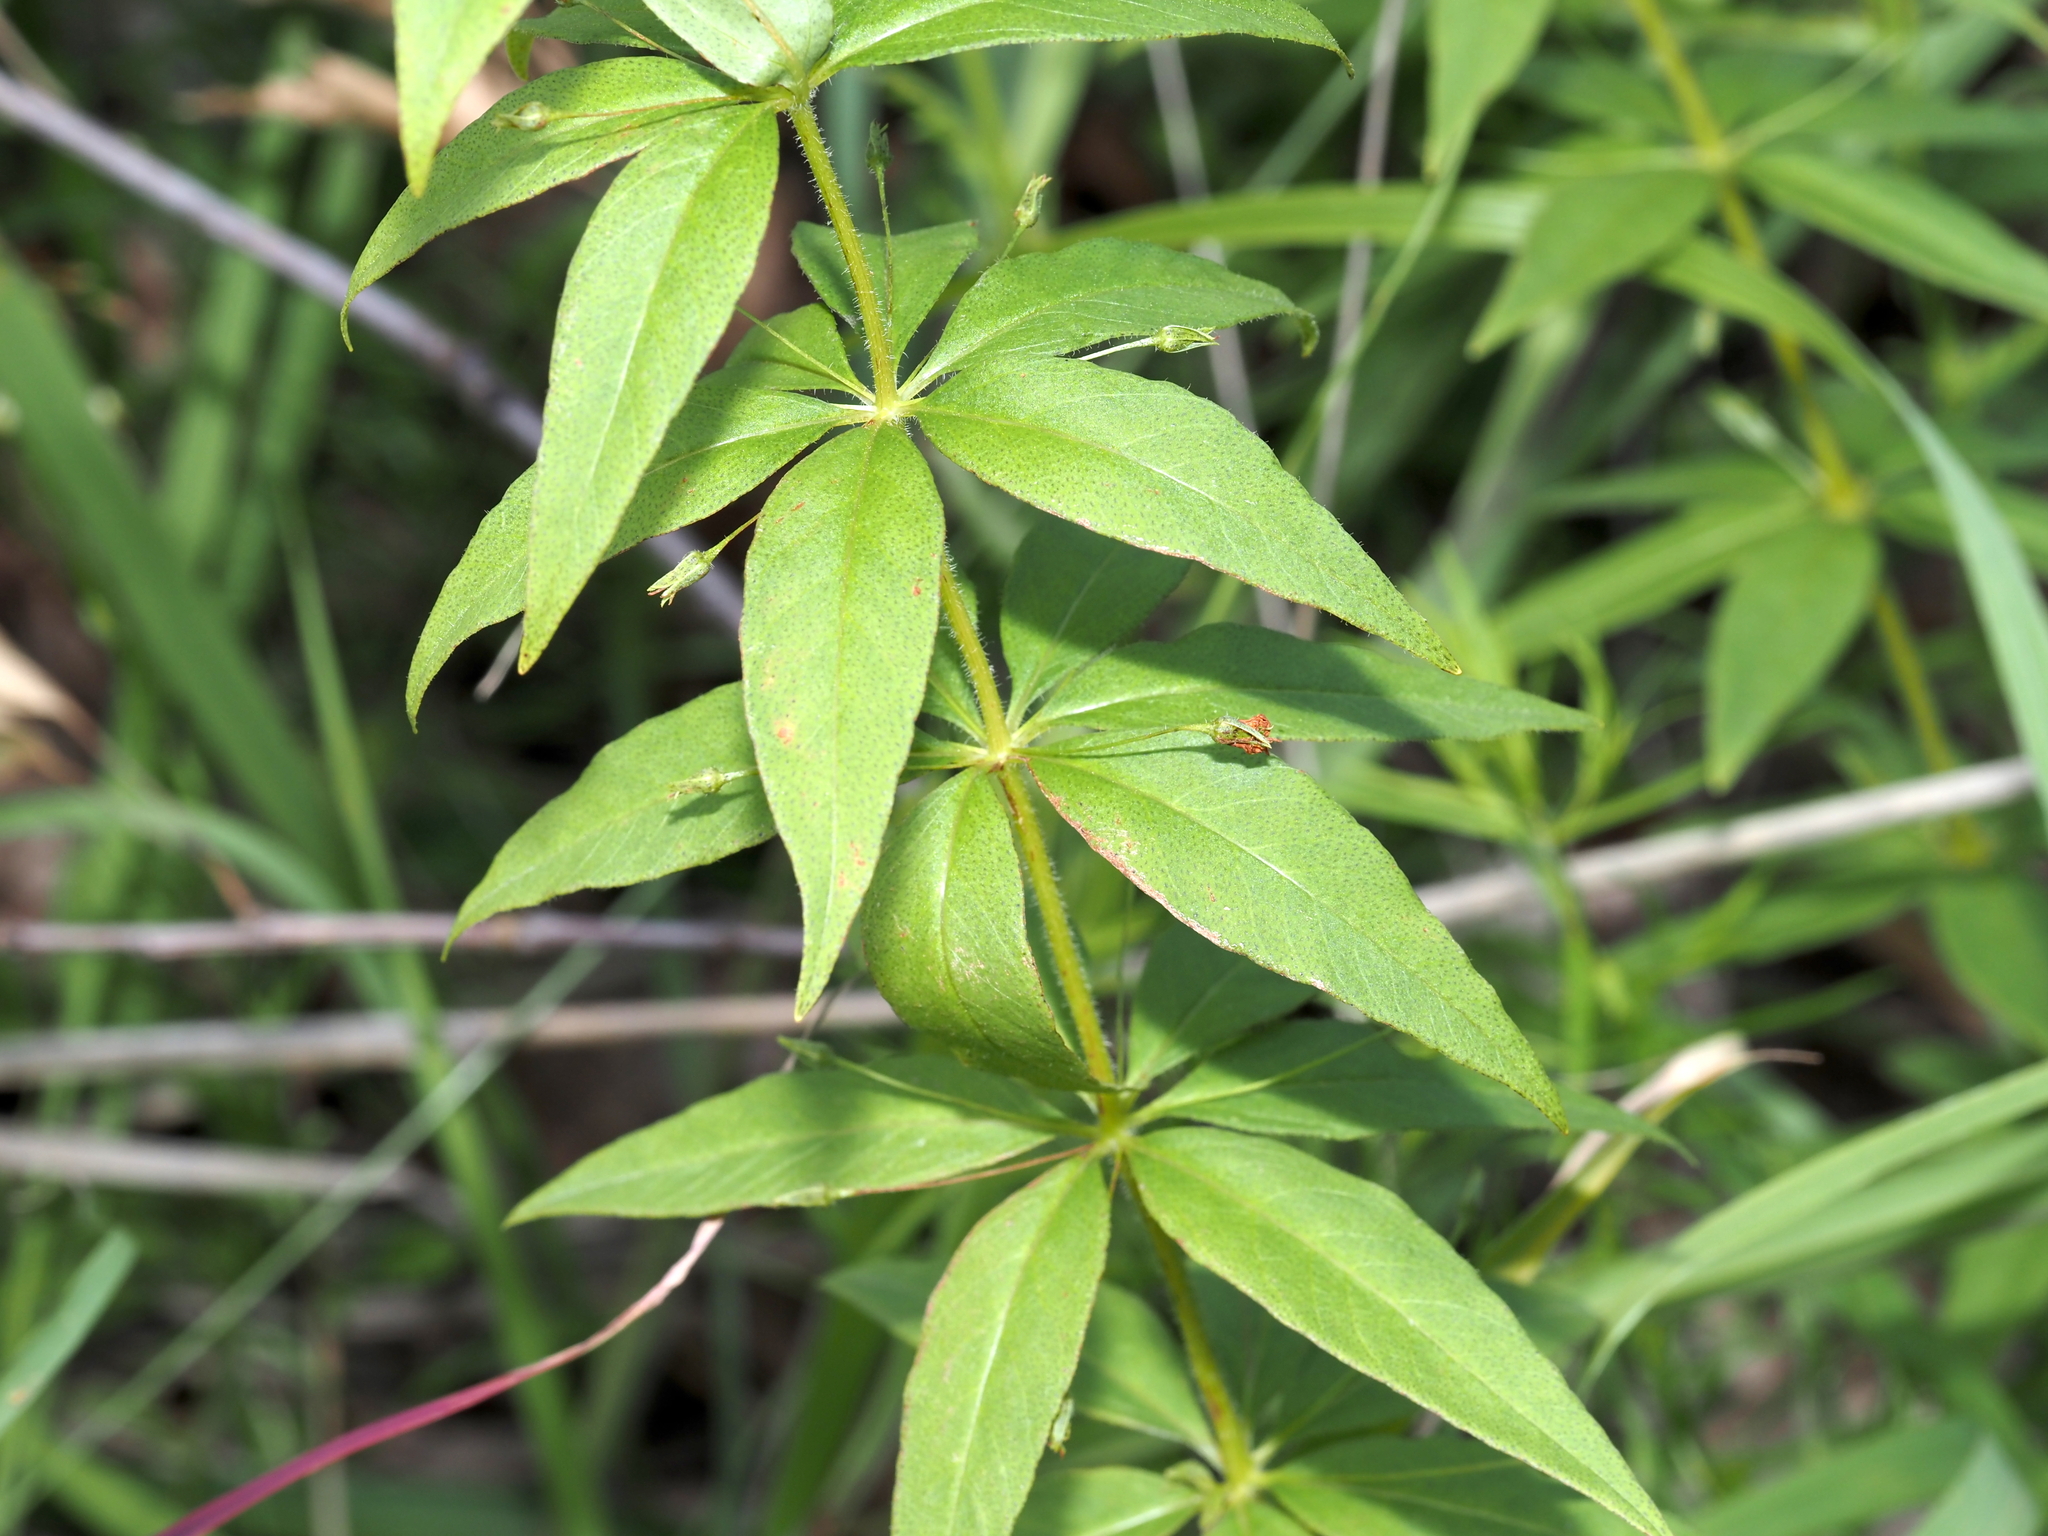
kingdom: Plantae
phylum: Tracheophyta
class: Magnoliopsida
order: Ericales
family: Primulaceae
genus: Lysimachia
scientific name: Lysimachia quadrifolia
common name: Whorled loosestrife
